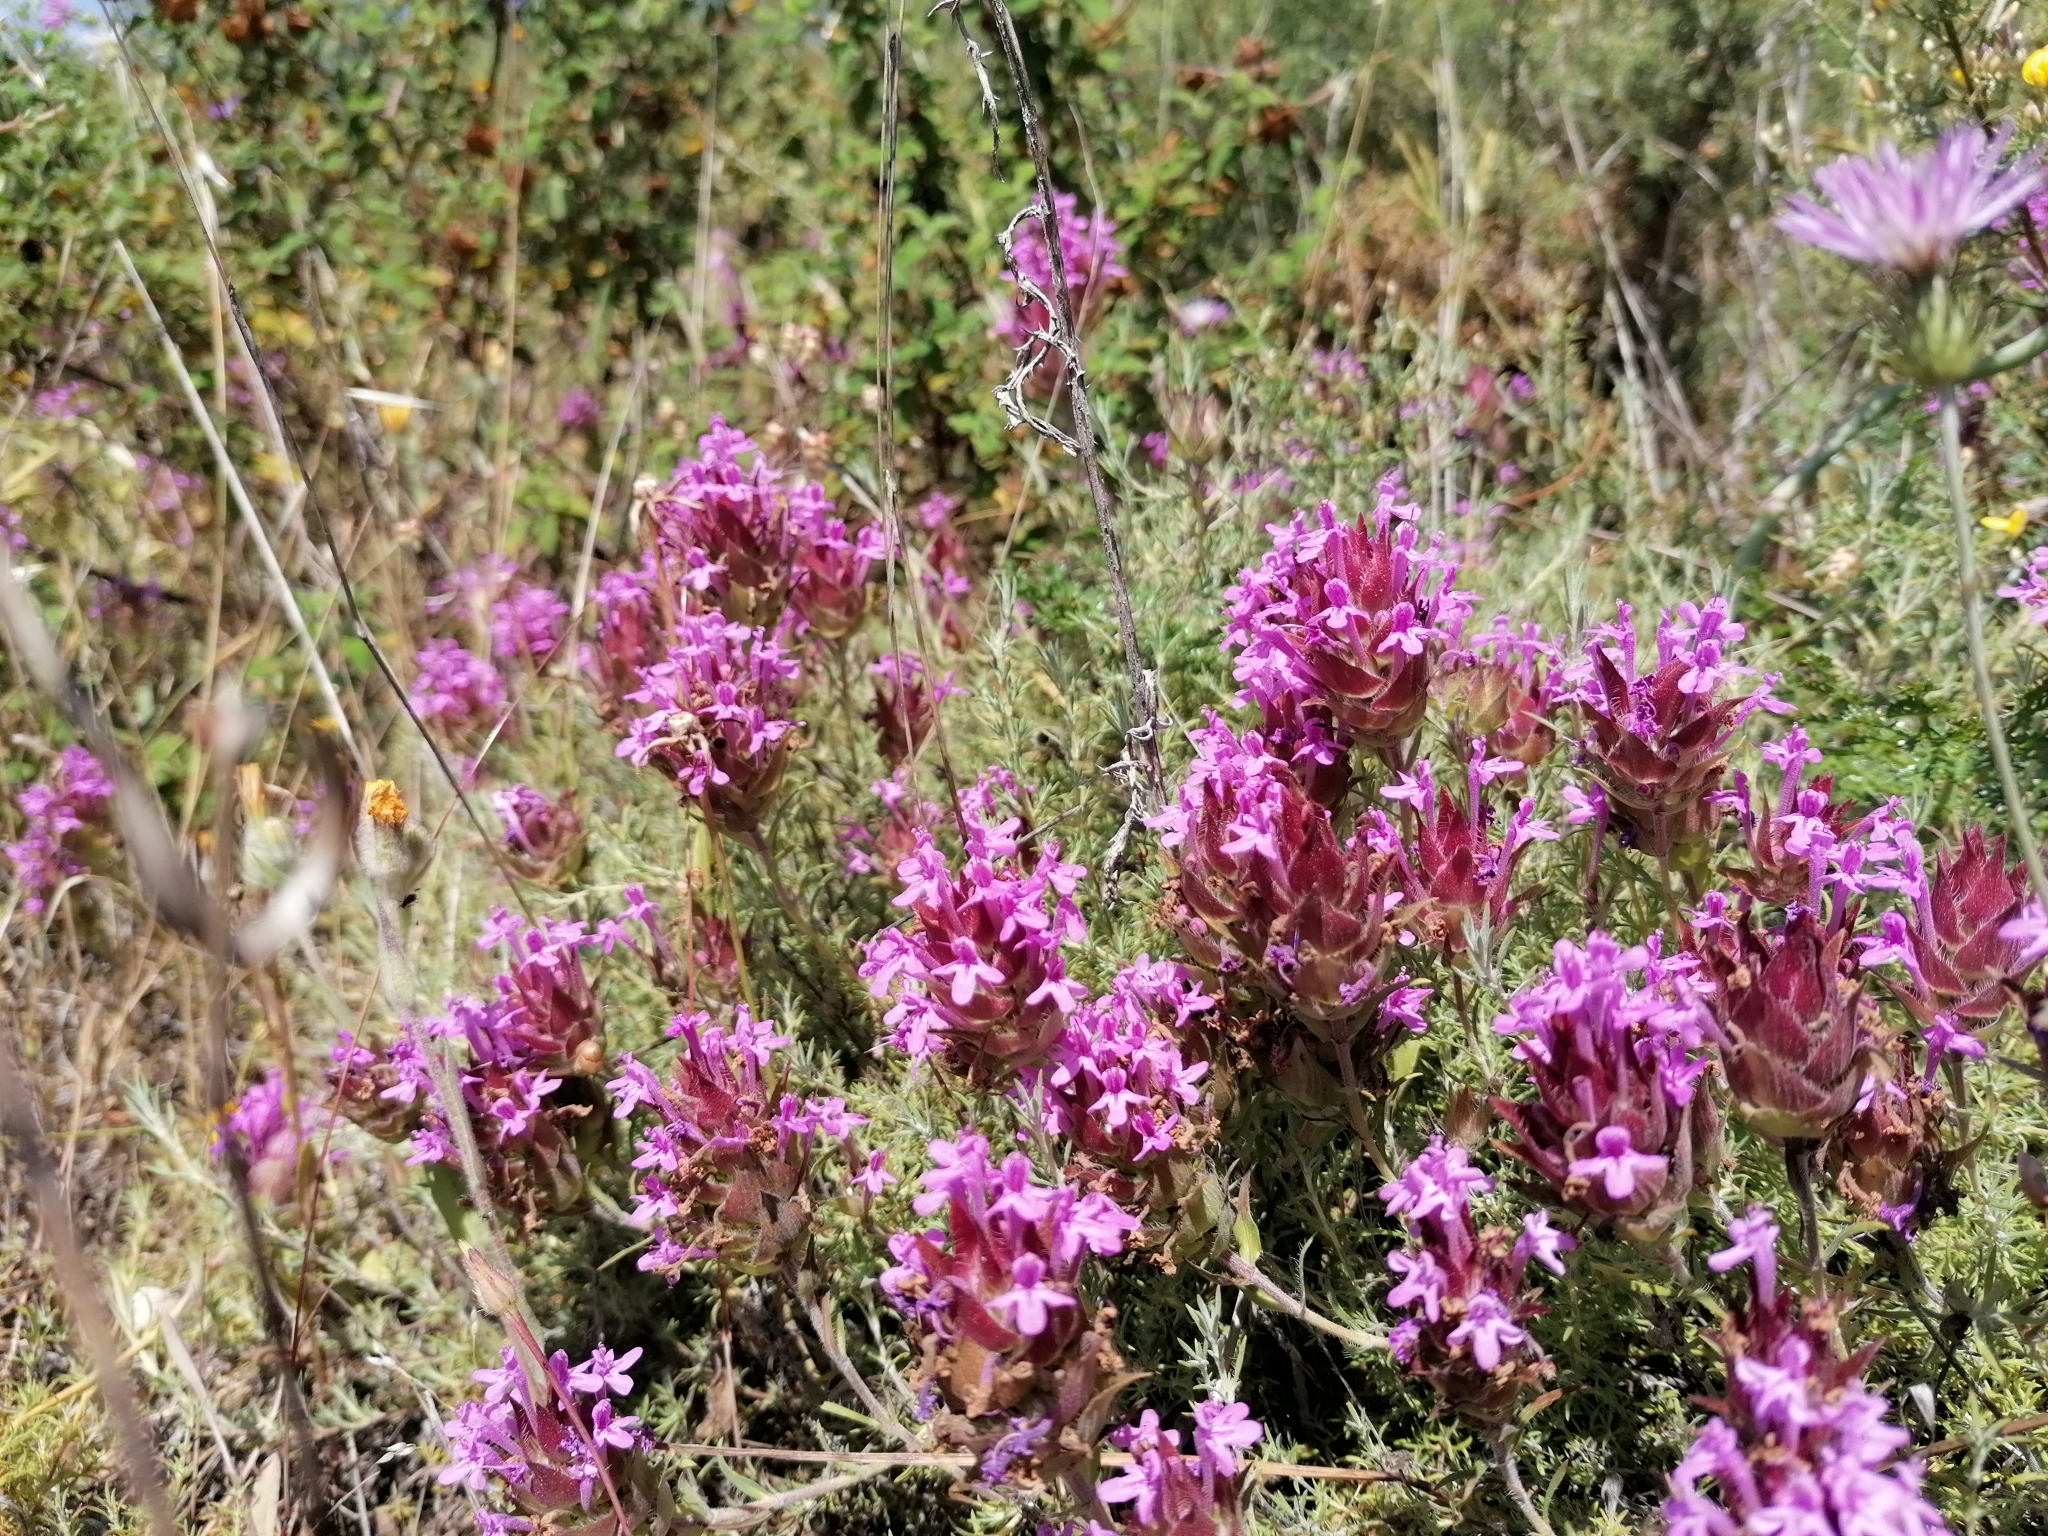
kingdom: Plantae
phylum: Tracheophyta
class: Magnoliopsida
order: Lamiales
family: Lamiaceae
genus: Thymus
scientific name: Thymus lotocephalus
